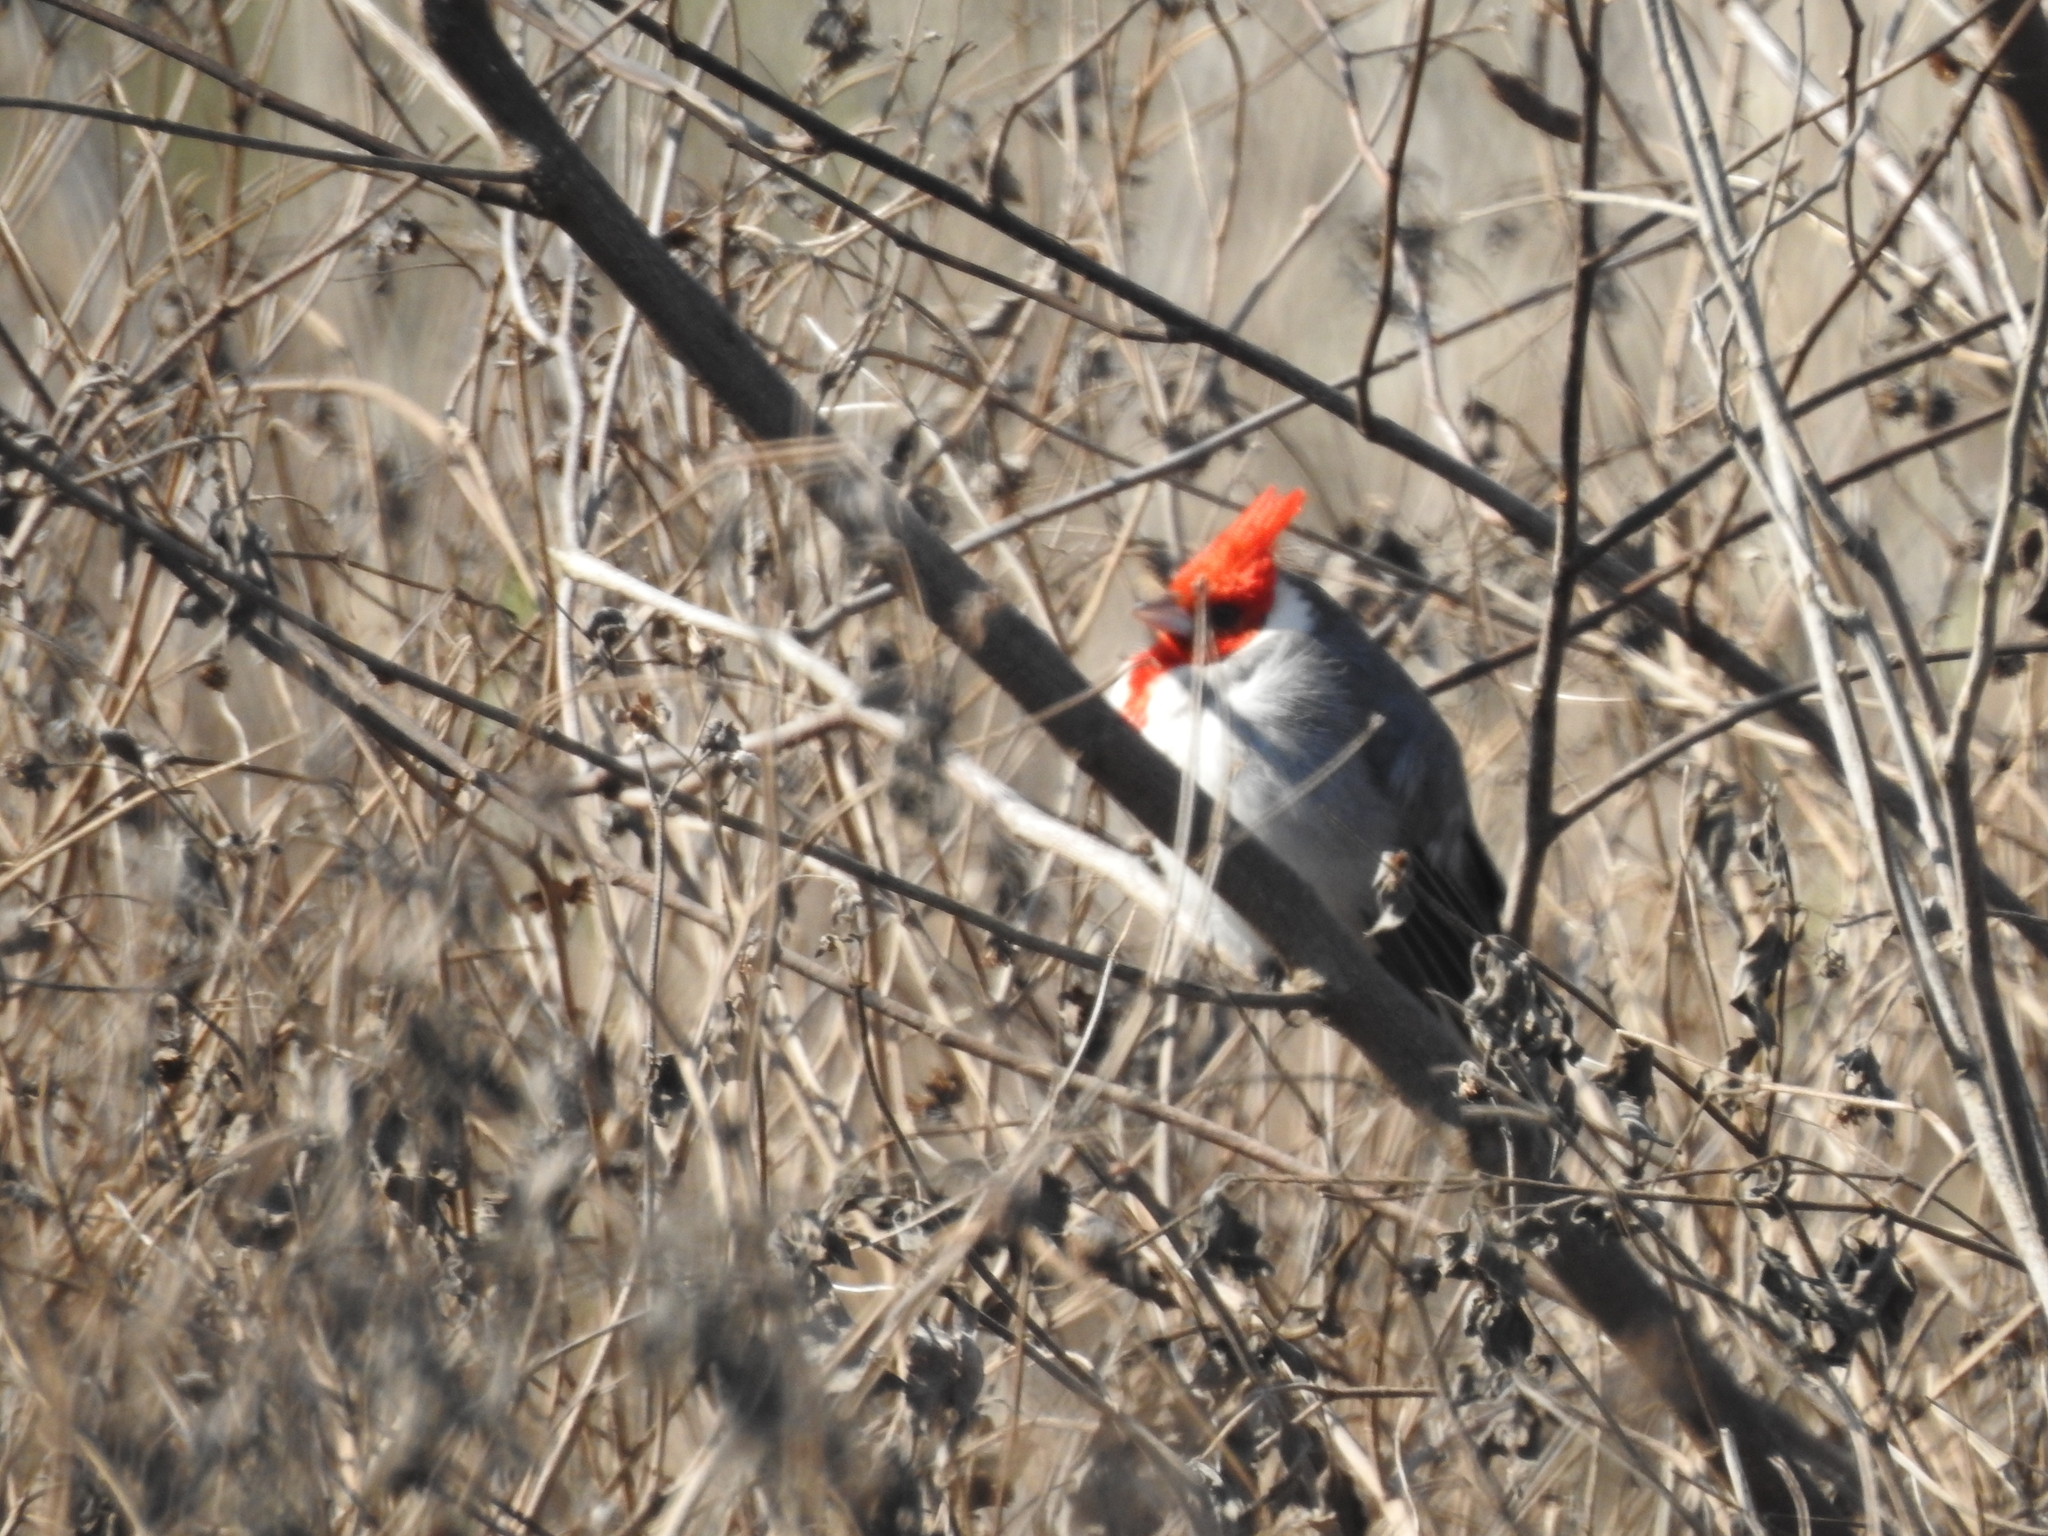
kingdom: Animalia
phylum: Chordata
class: Aves
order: Passeriformes
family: Thraupidae
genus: Paroaria
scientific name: Paroaria coronata
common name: Red-crested cardinal
